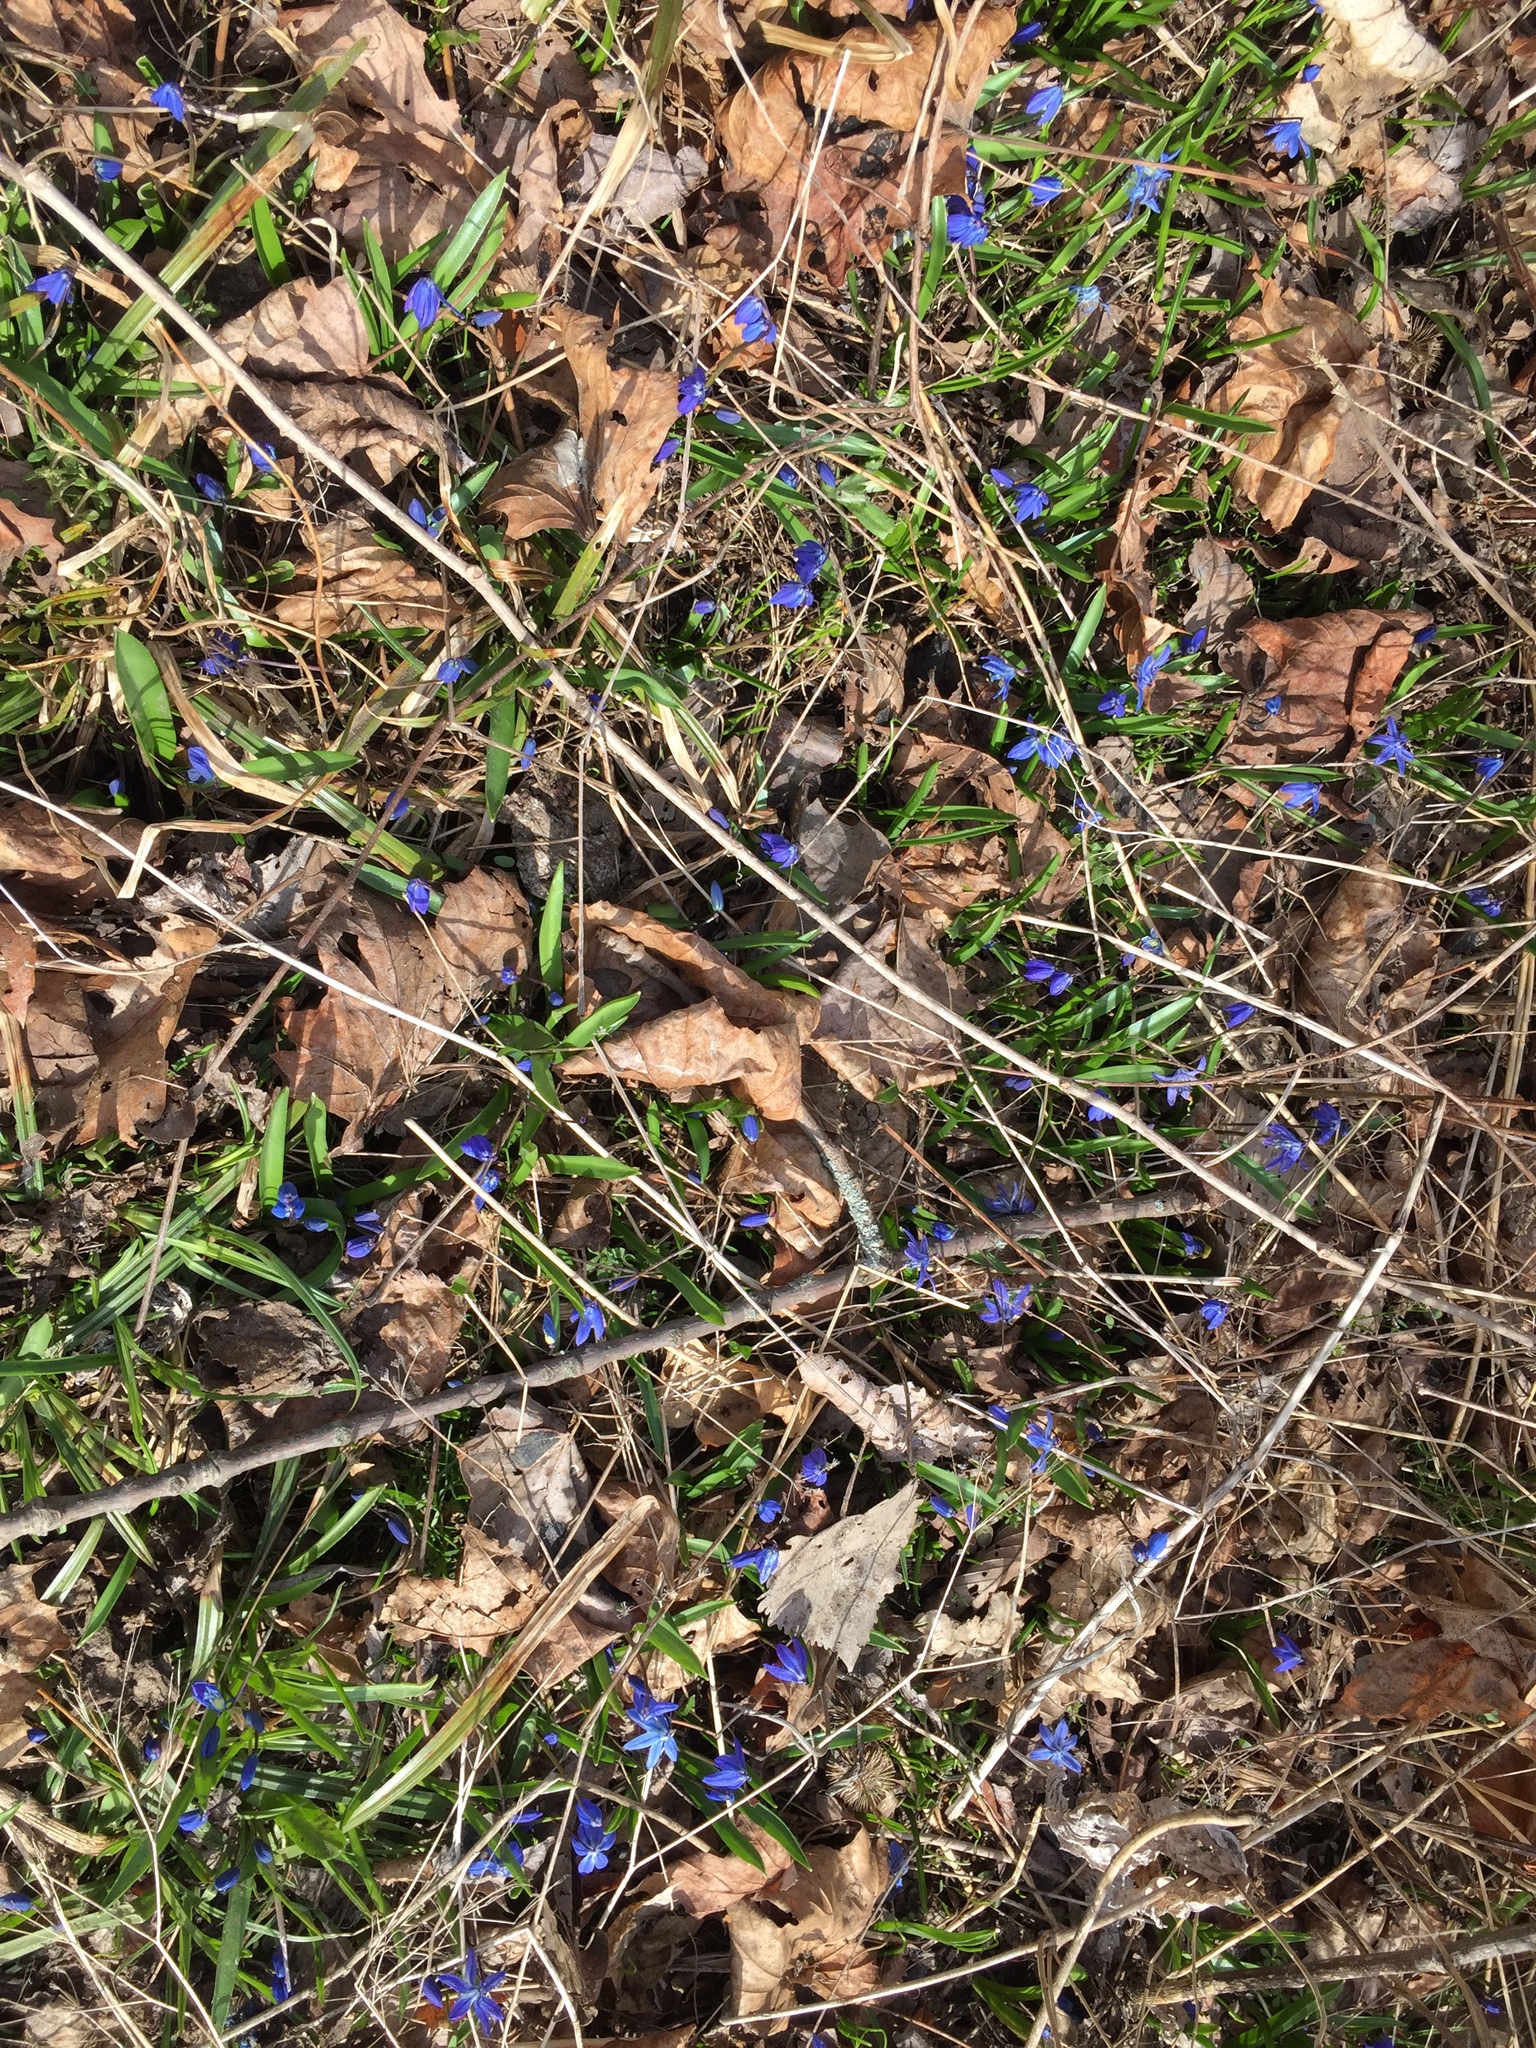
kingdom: Plantae
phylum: Tracheophyta
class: Liliopsida
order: Asparagales
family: Asparagaceae
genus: Scilla
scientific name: Scilla siberica
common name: Siberian squill
